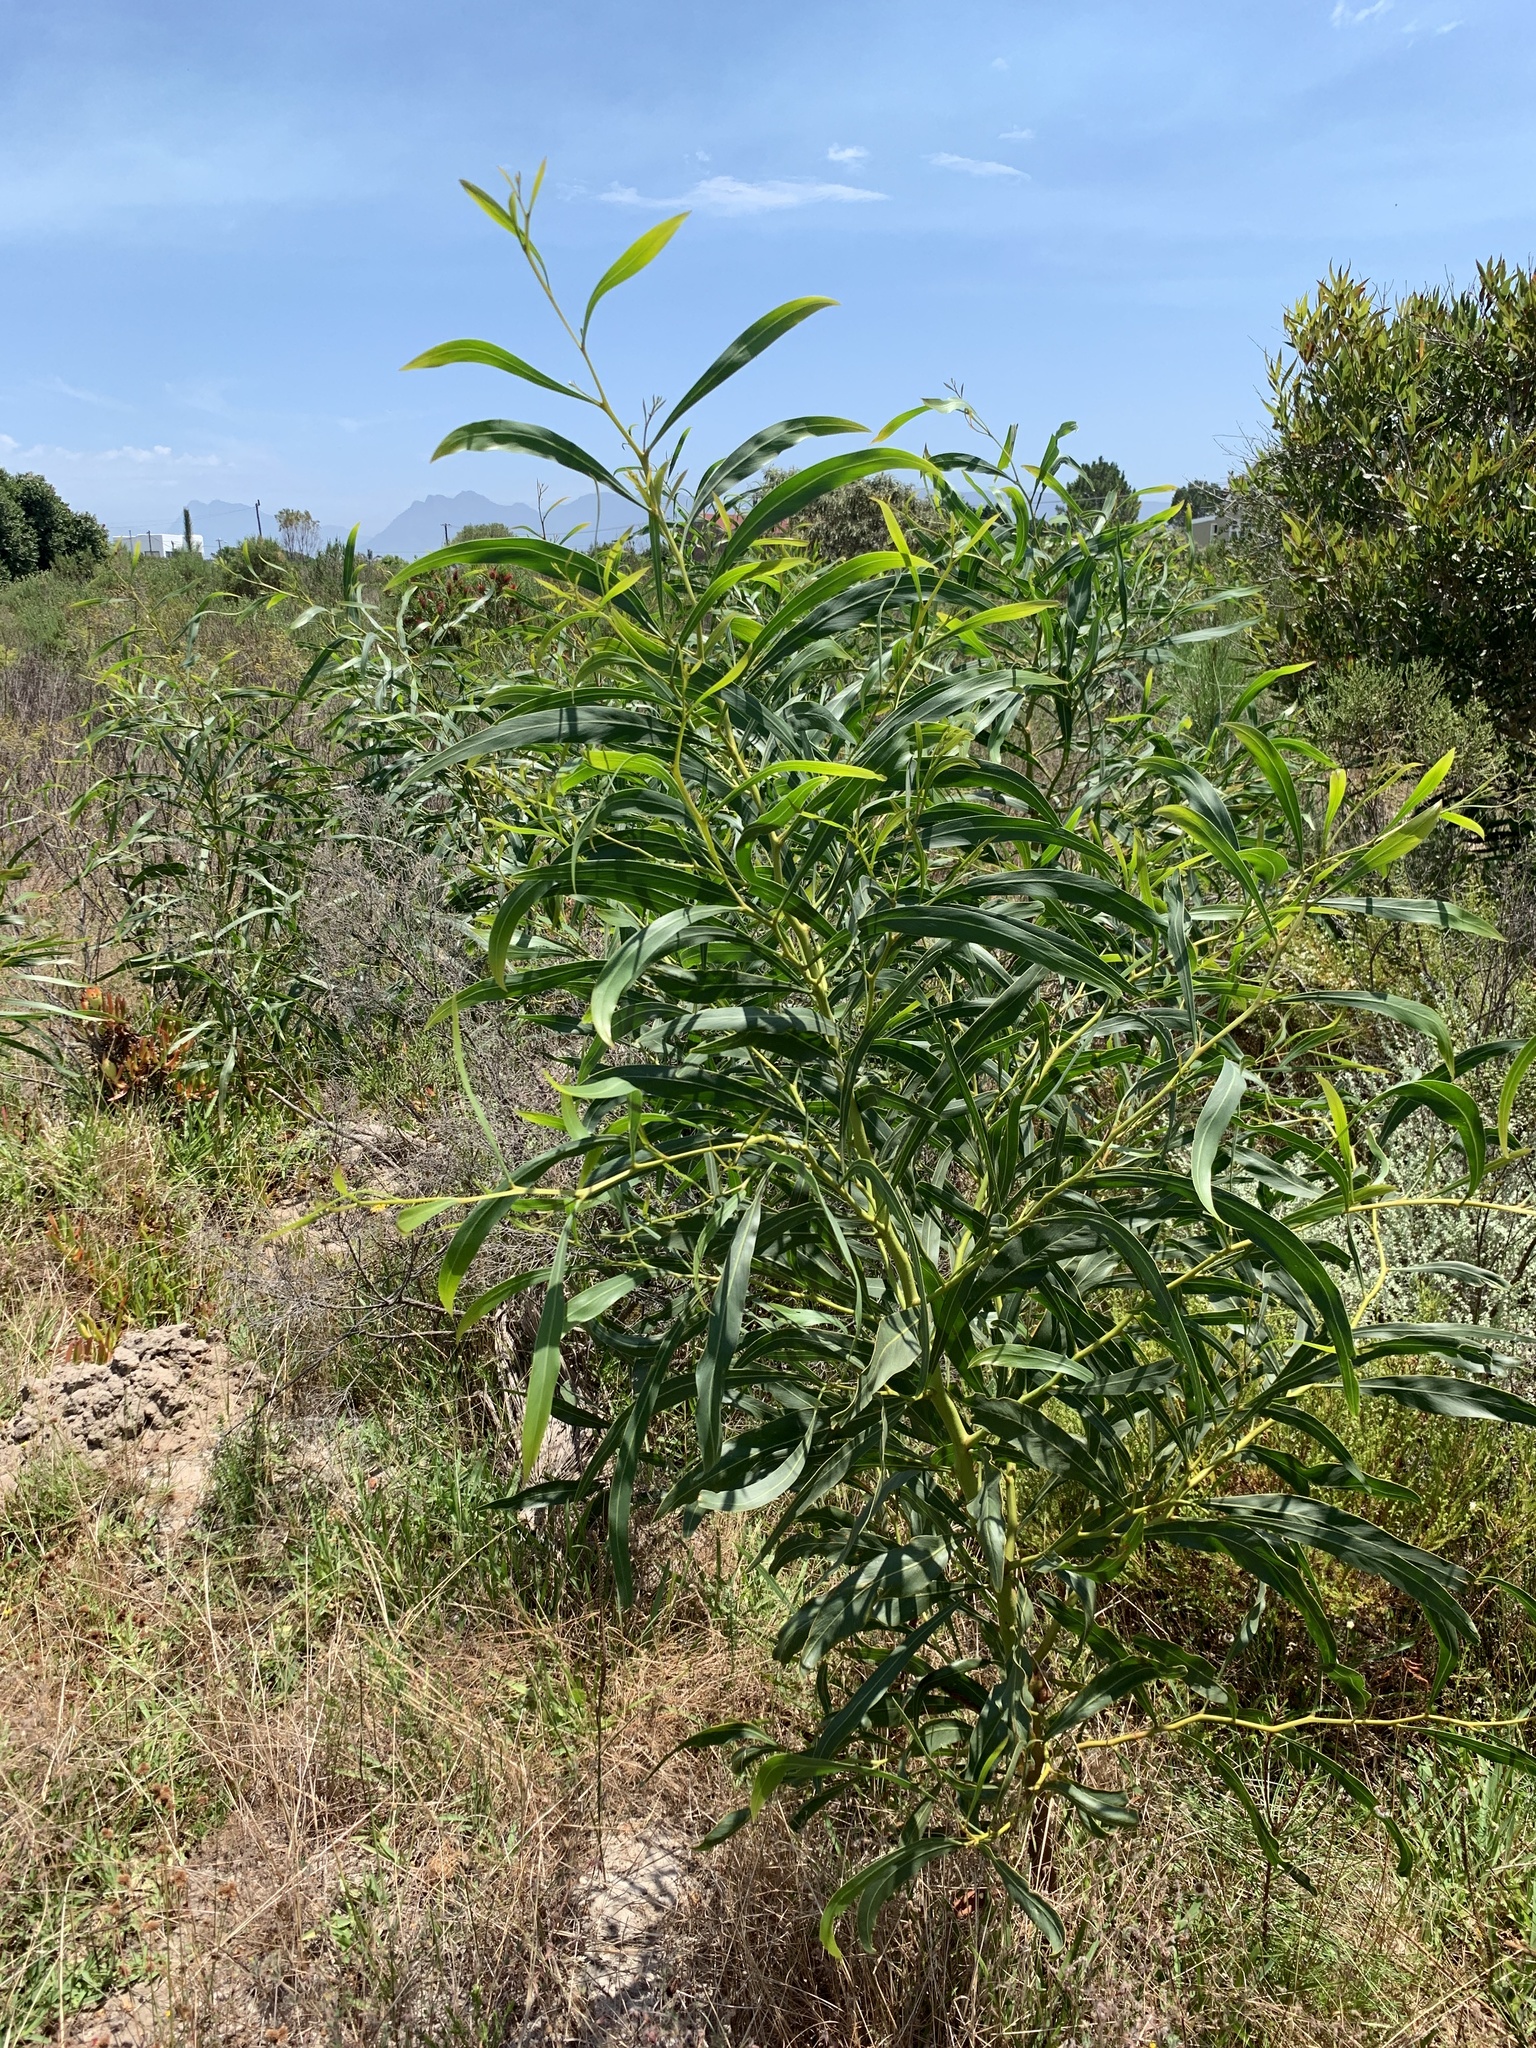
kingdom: Plantae
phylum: Tracheophyta
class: Magnoliopsida
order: Fabales
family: Fabaceae
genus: Acacia
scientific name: Acacia saligna
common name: Orange wattle
